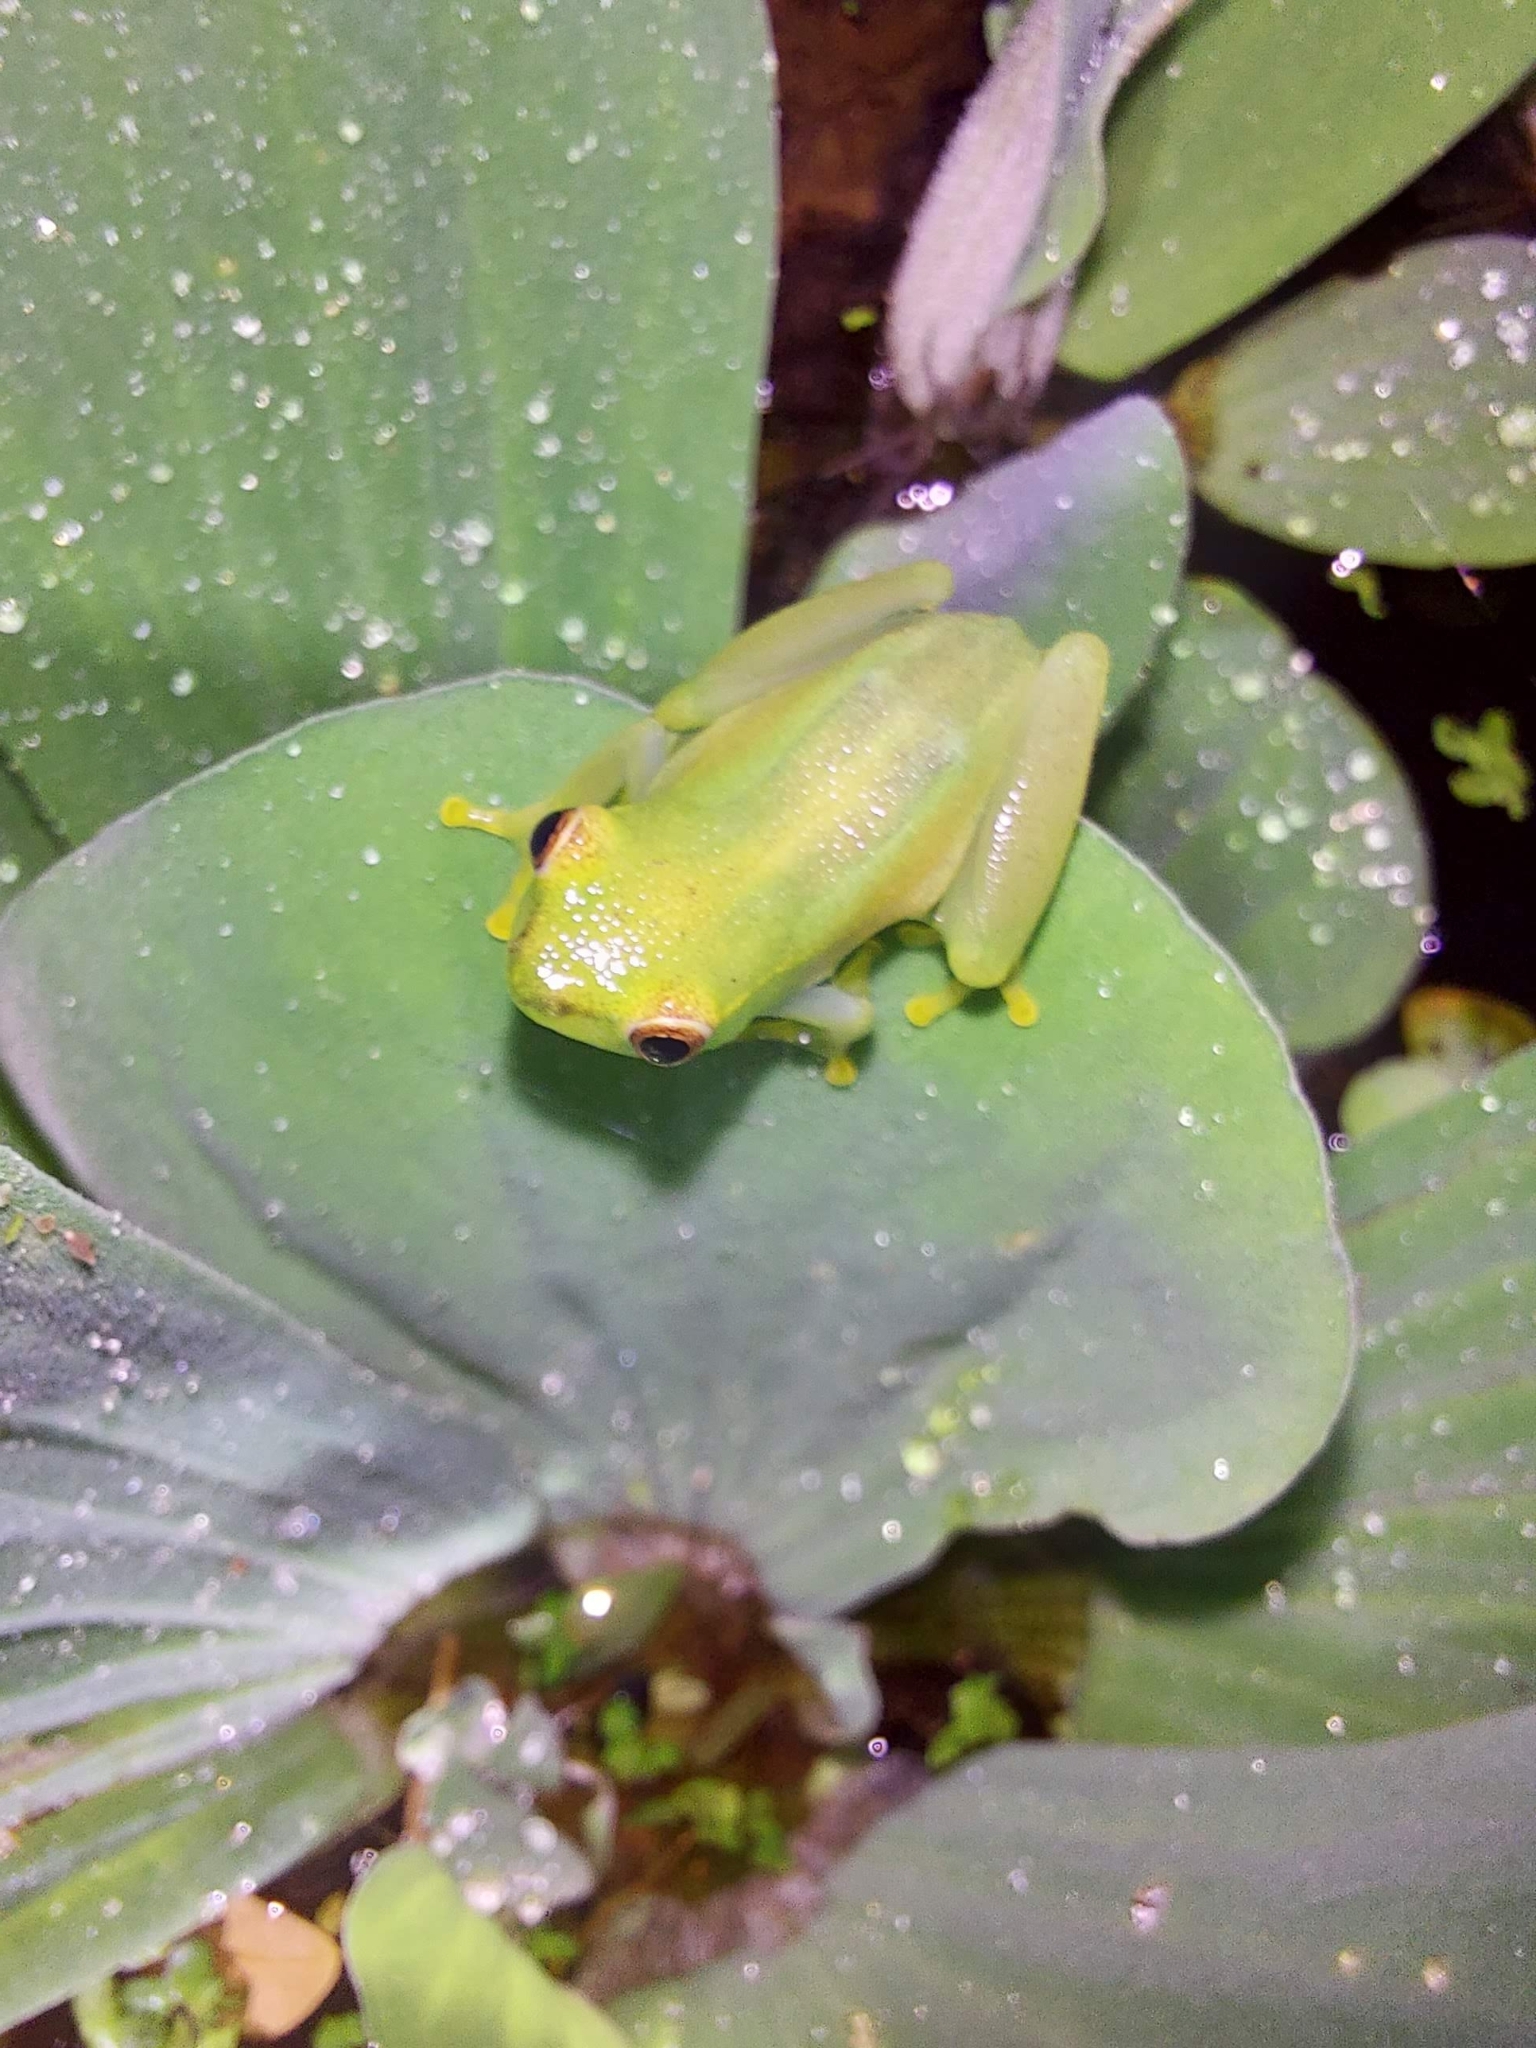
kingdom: Animalia
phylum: Chordata
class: Amphibia
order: Anura
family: Hyperoliidae
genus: Hyperolius
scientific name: Hyperolius pusillus
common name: Water lily reed frog
